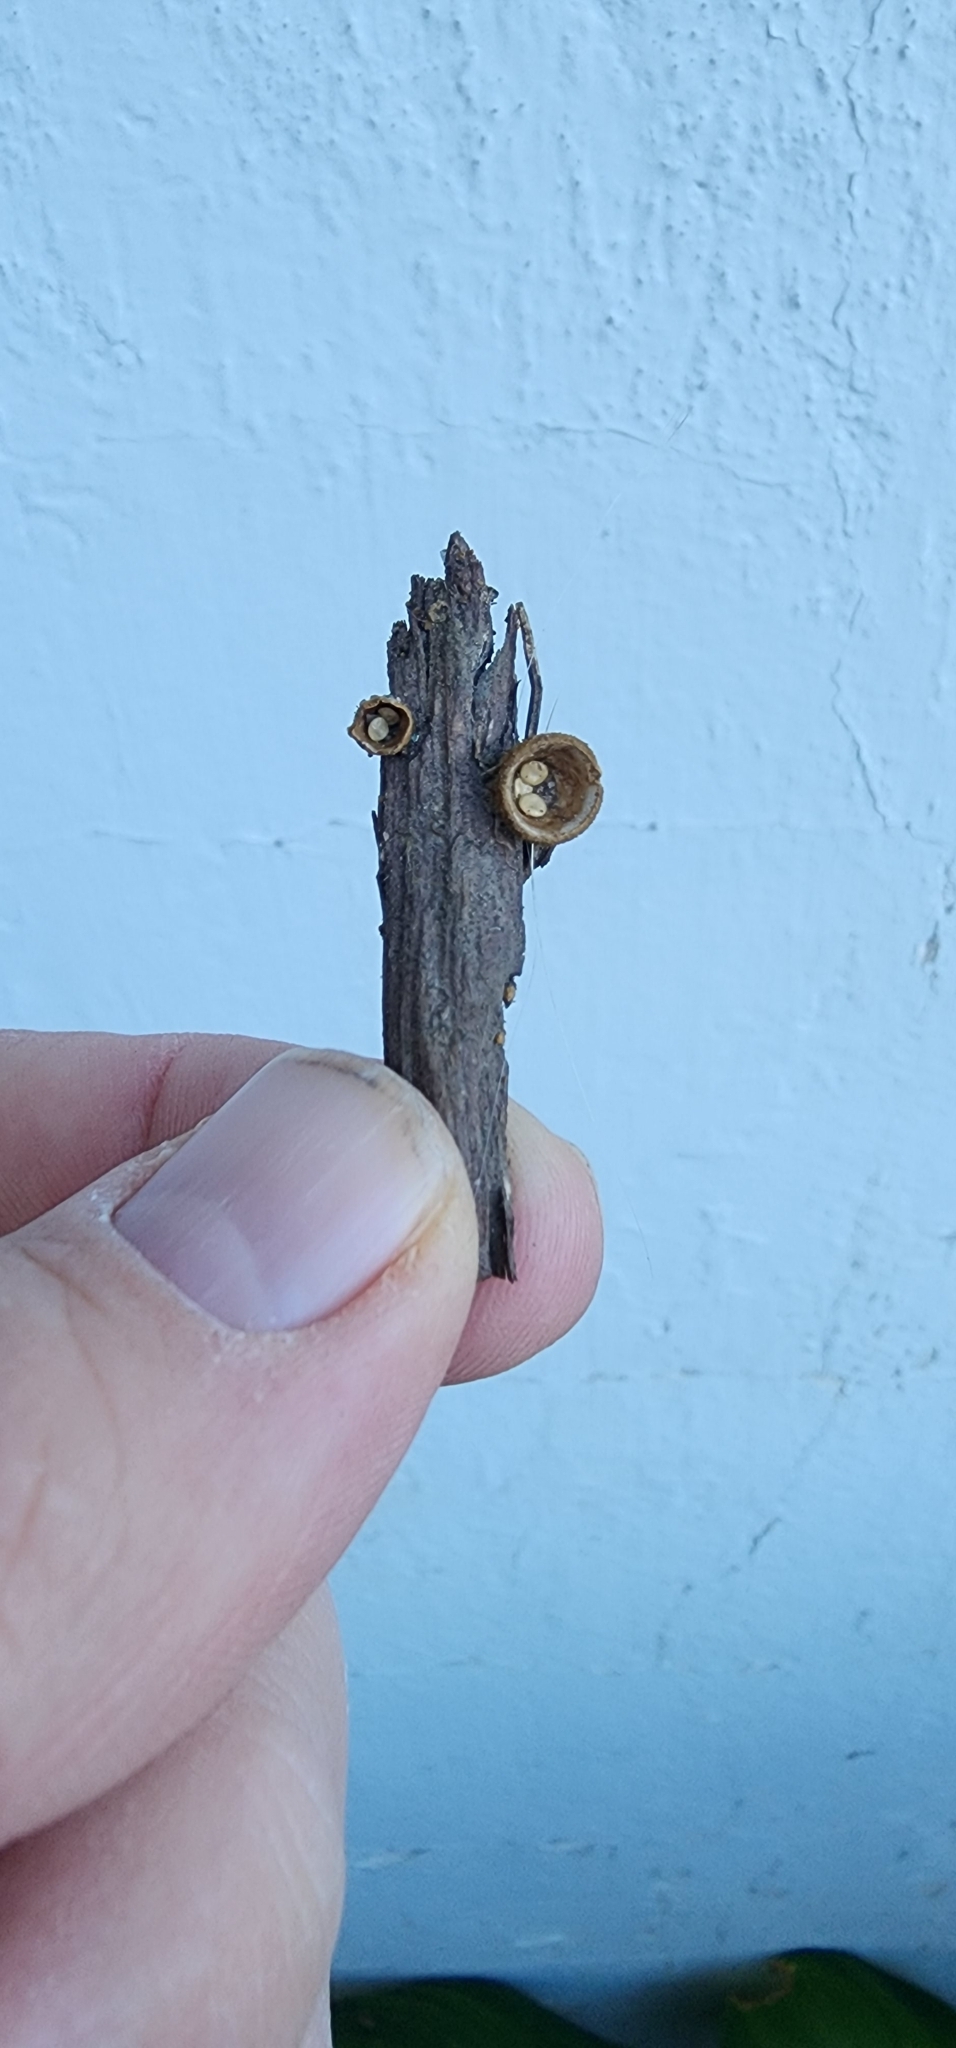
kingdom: Fungi
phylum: Basidiomycota
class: Agaricomycetes
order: Agaricales
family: Nidulariaceae
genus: Crucibulum
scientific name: Crucibulum laeve
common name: Common bird's nest
